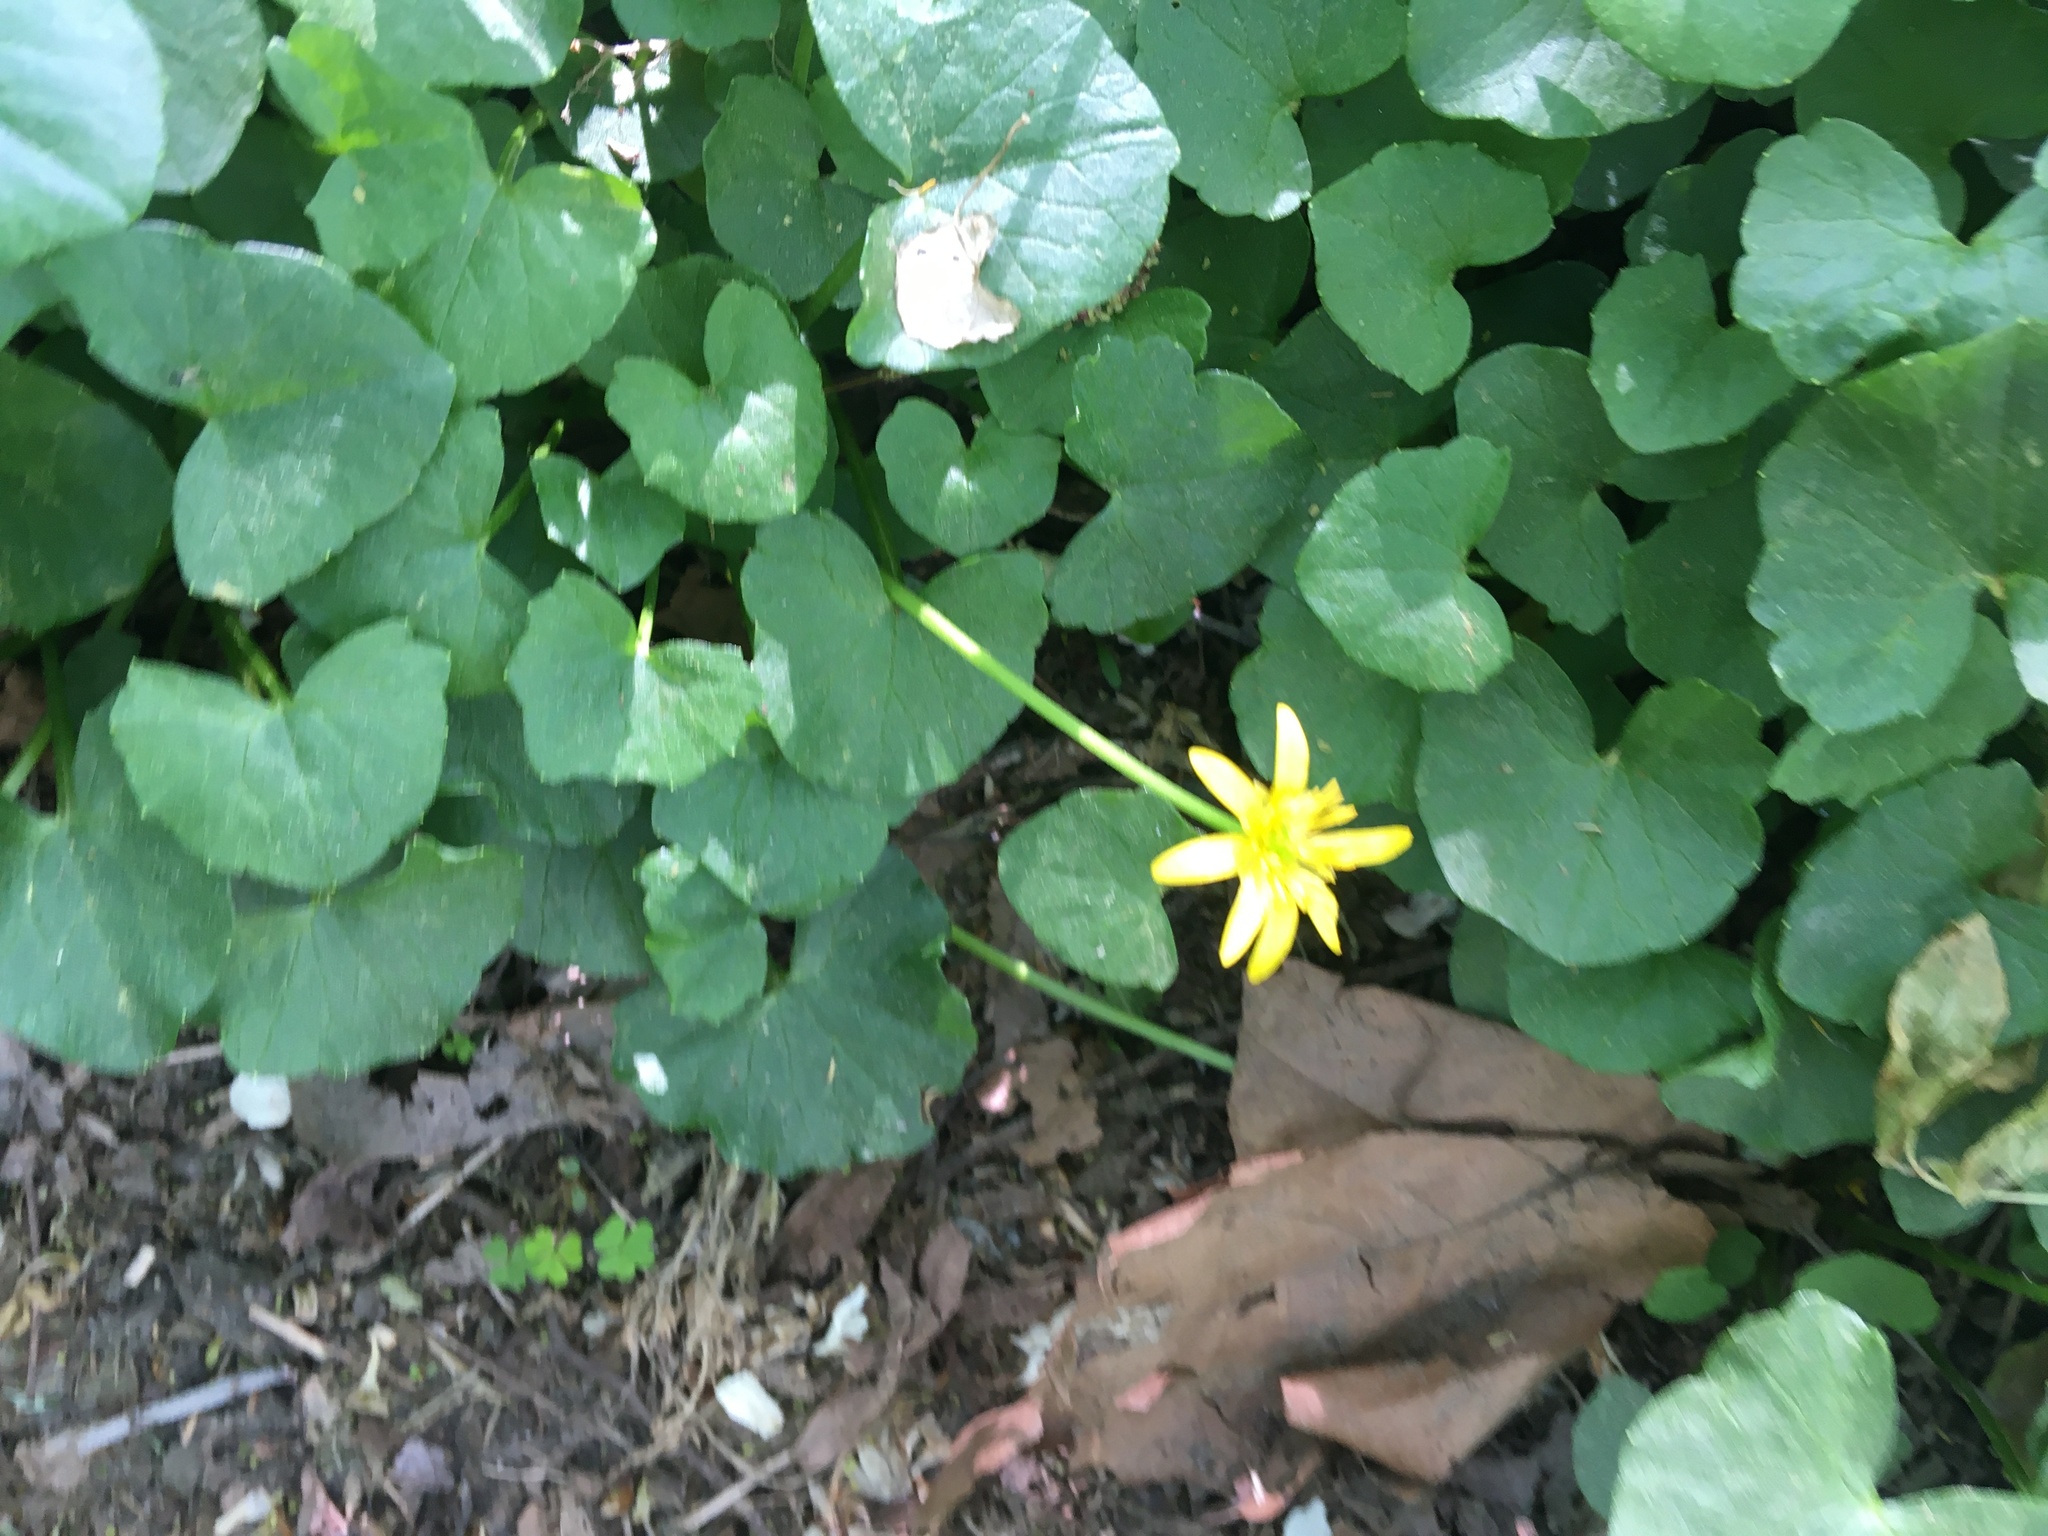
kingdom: Plantae
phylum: Tracheophyta
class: Magnoliopsida
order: Ranunculales
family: Ranunculaceae
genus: Ficaria
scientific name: Ficaria verna
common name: Lesser celandine
